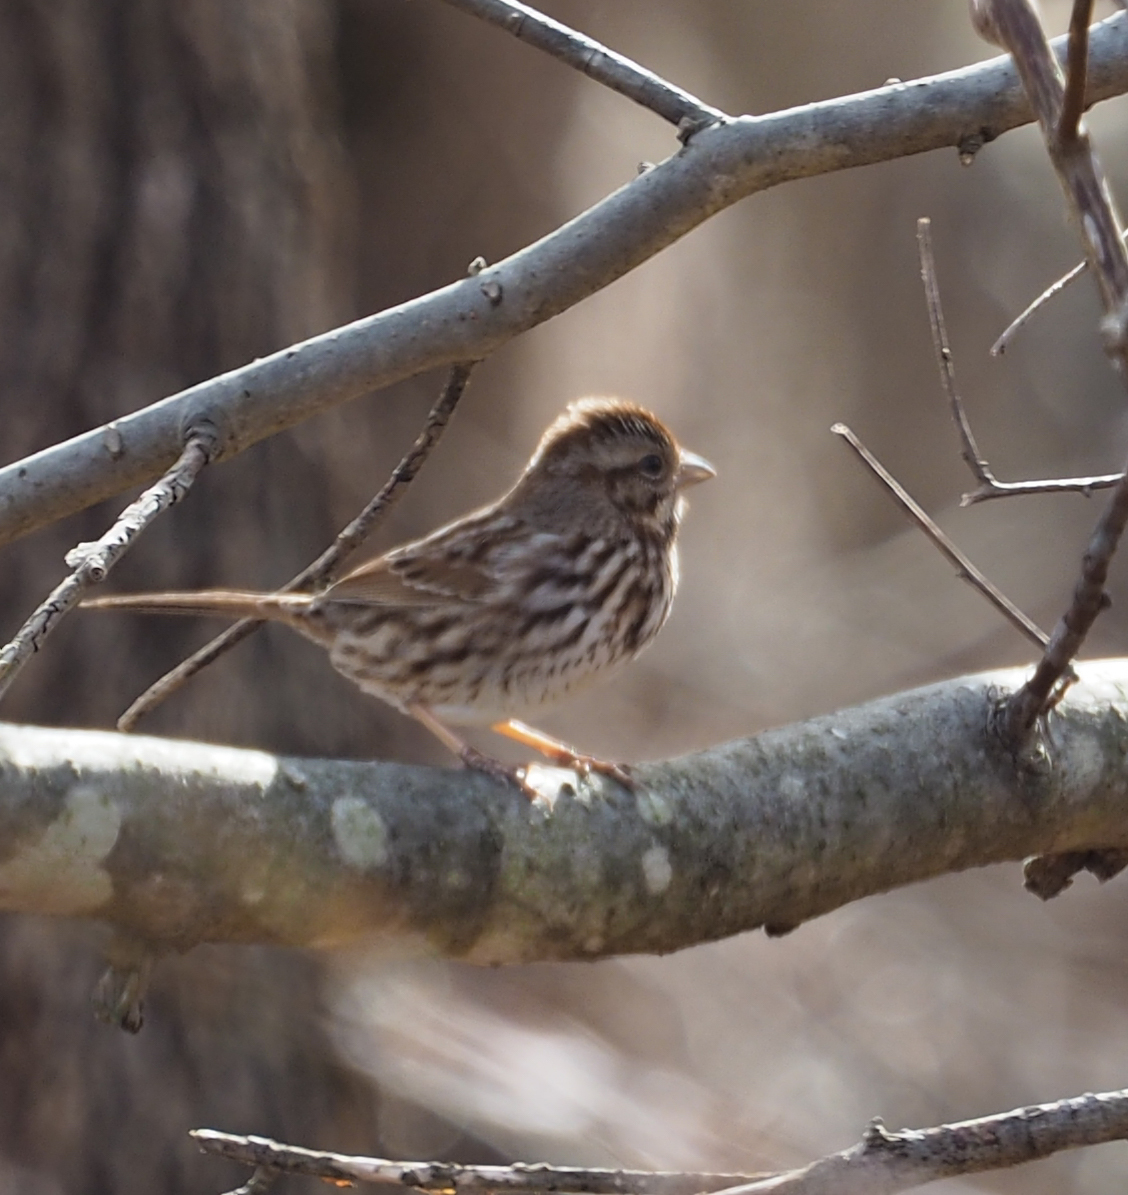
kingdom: Animalia
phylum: Chordata
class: Aves
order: Passeriformes
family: Passerellidae
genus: Melospiza
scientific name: Melospiza melodia
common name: Song sparrow
